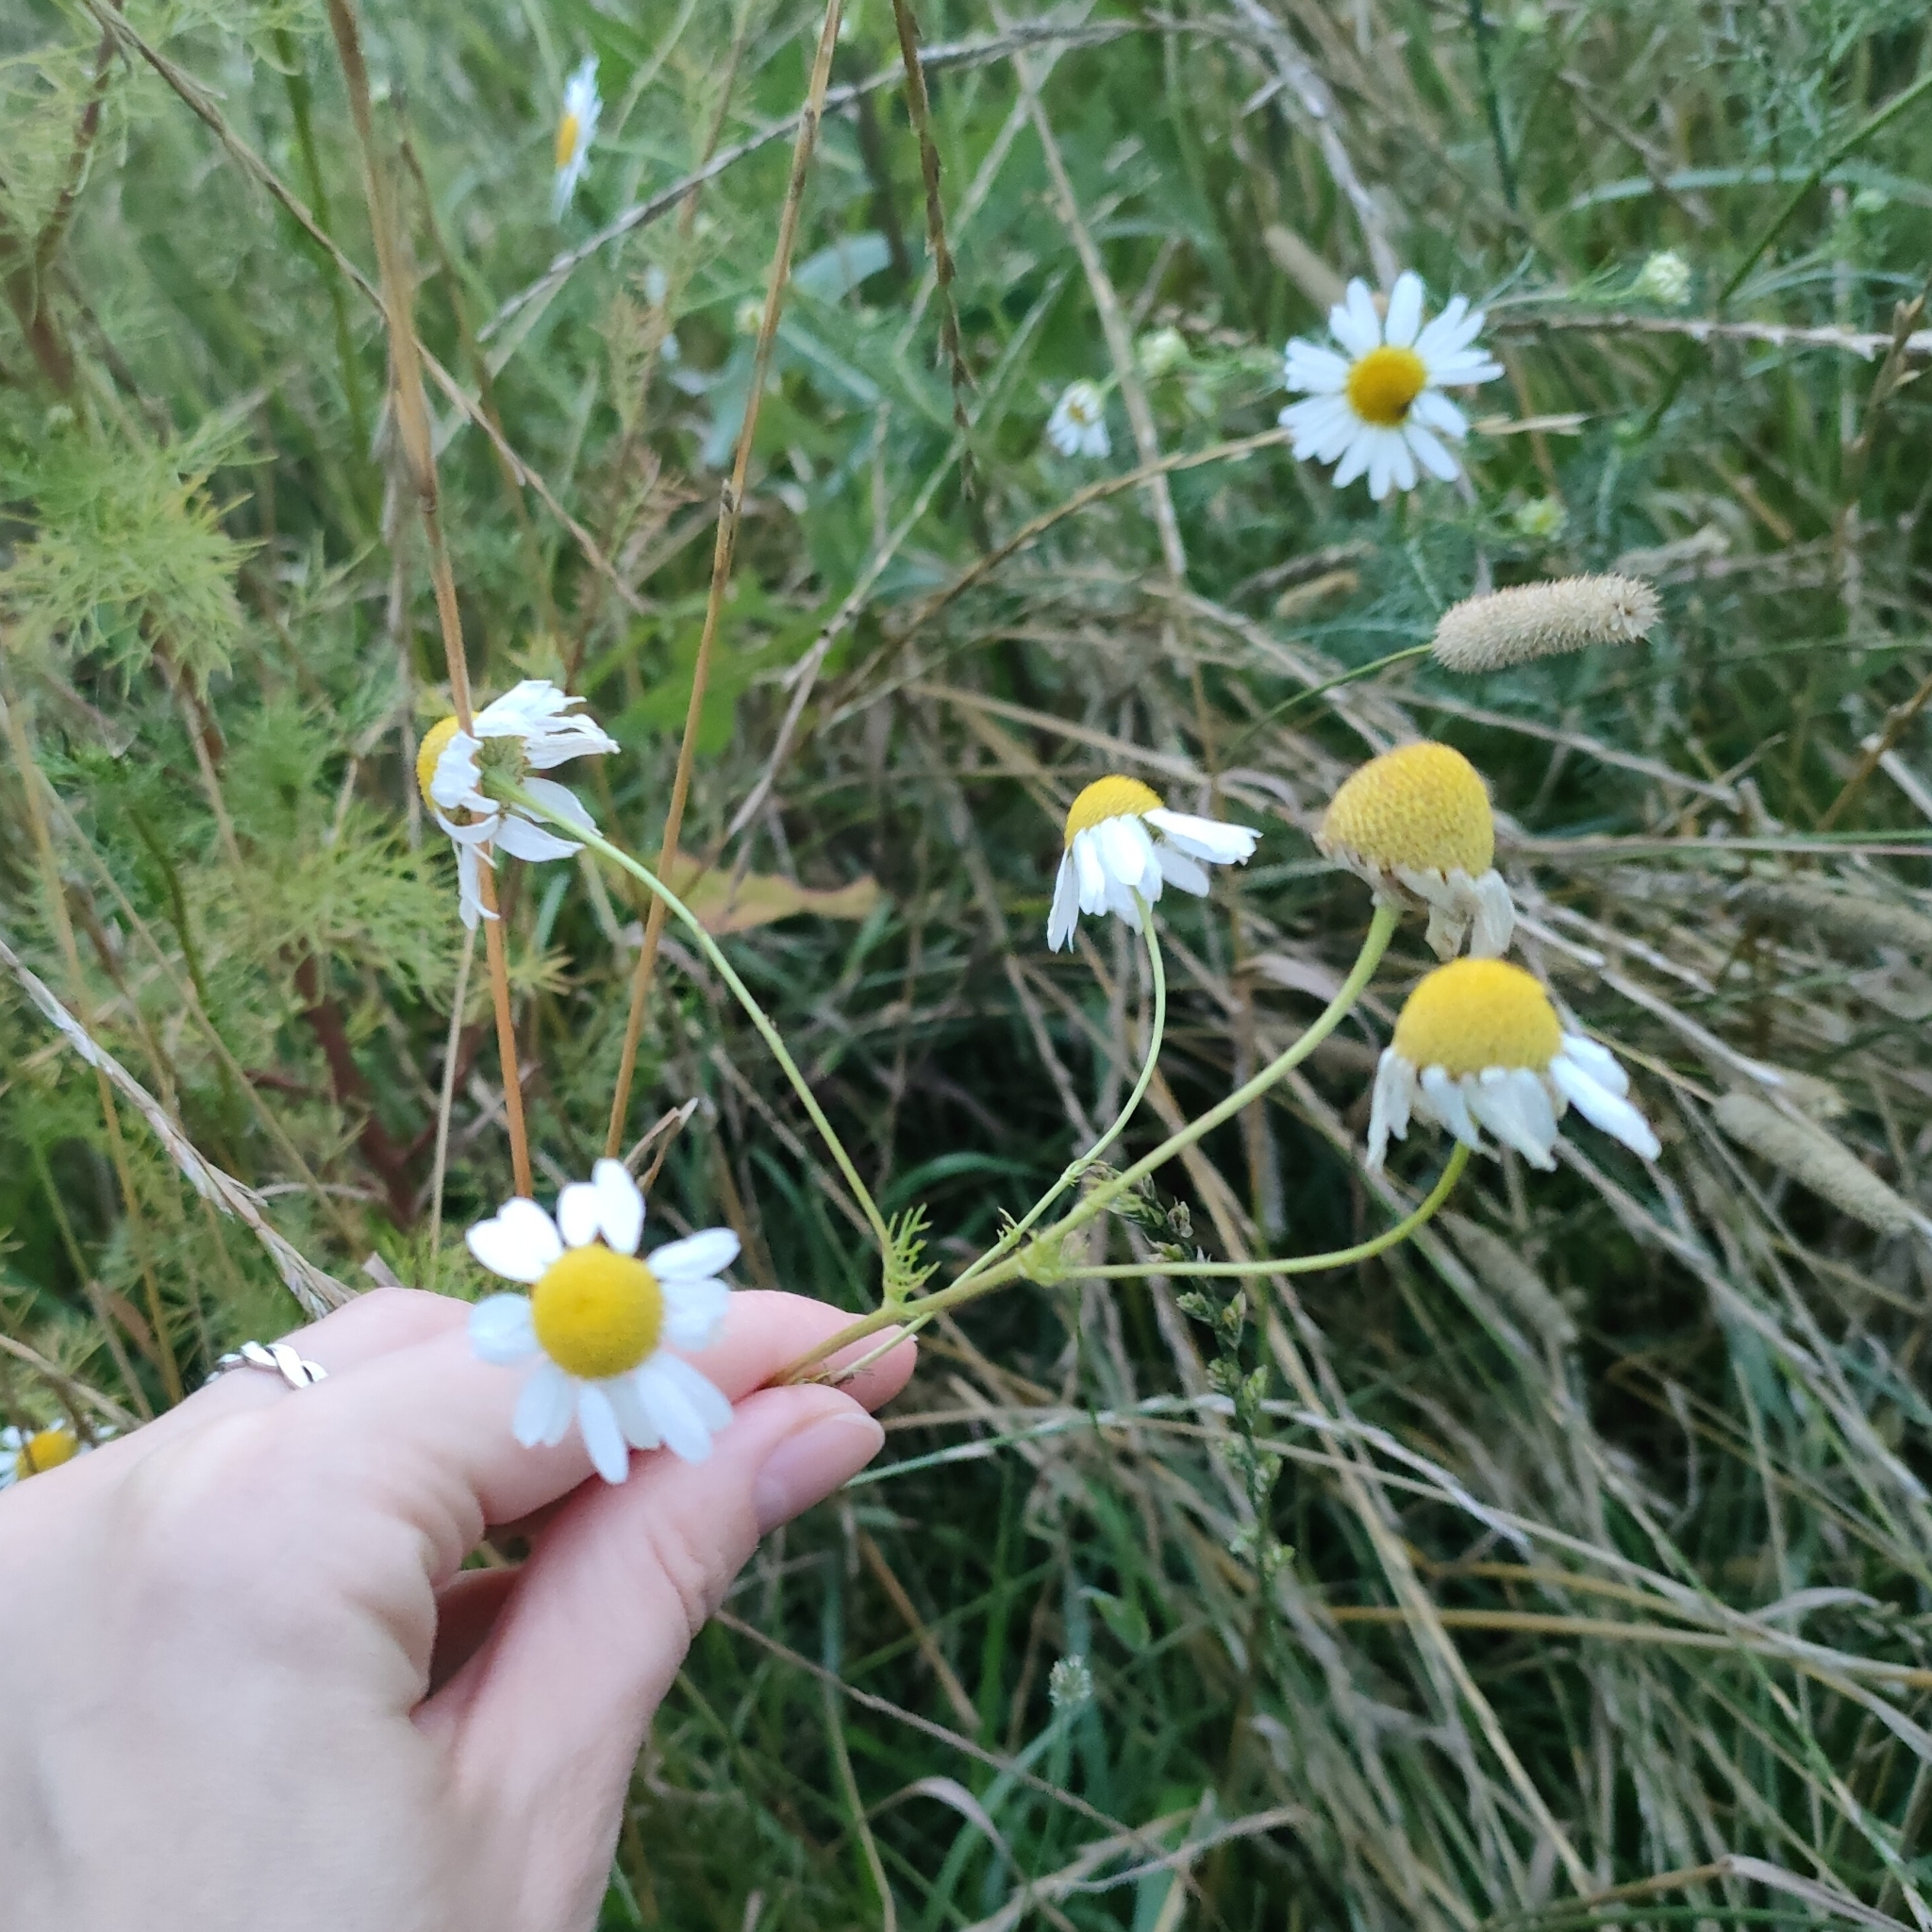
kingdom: Plantae
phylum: Tracheophyta
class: Magnoliopsida
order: Asterales
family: Asteraceae
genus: Tripleurospermum
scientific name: Tripleurospermum inodorum
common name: Scentless mayweed
